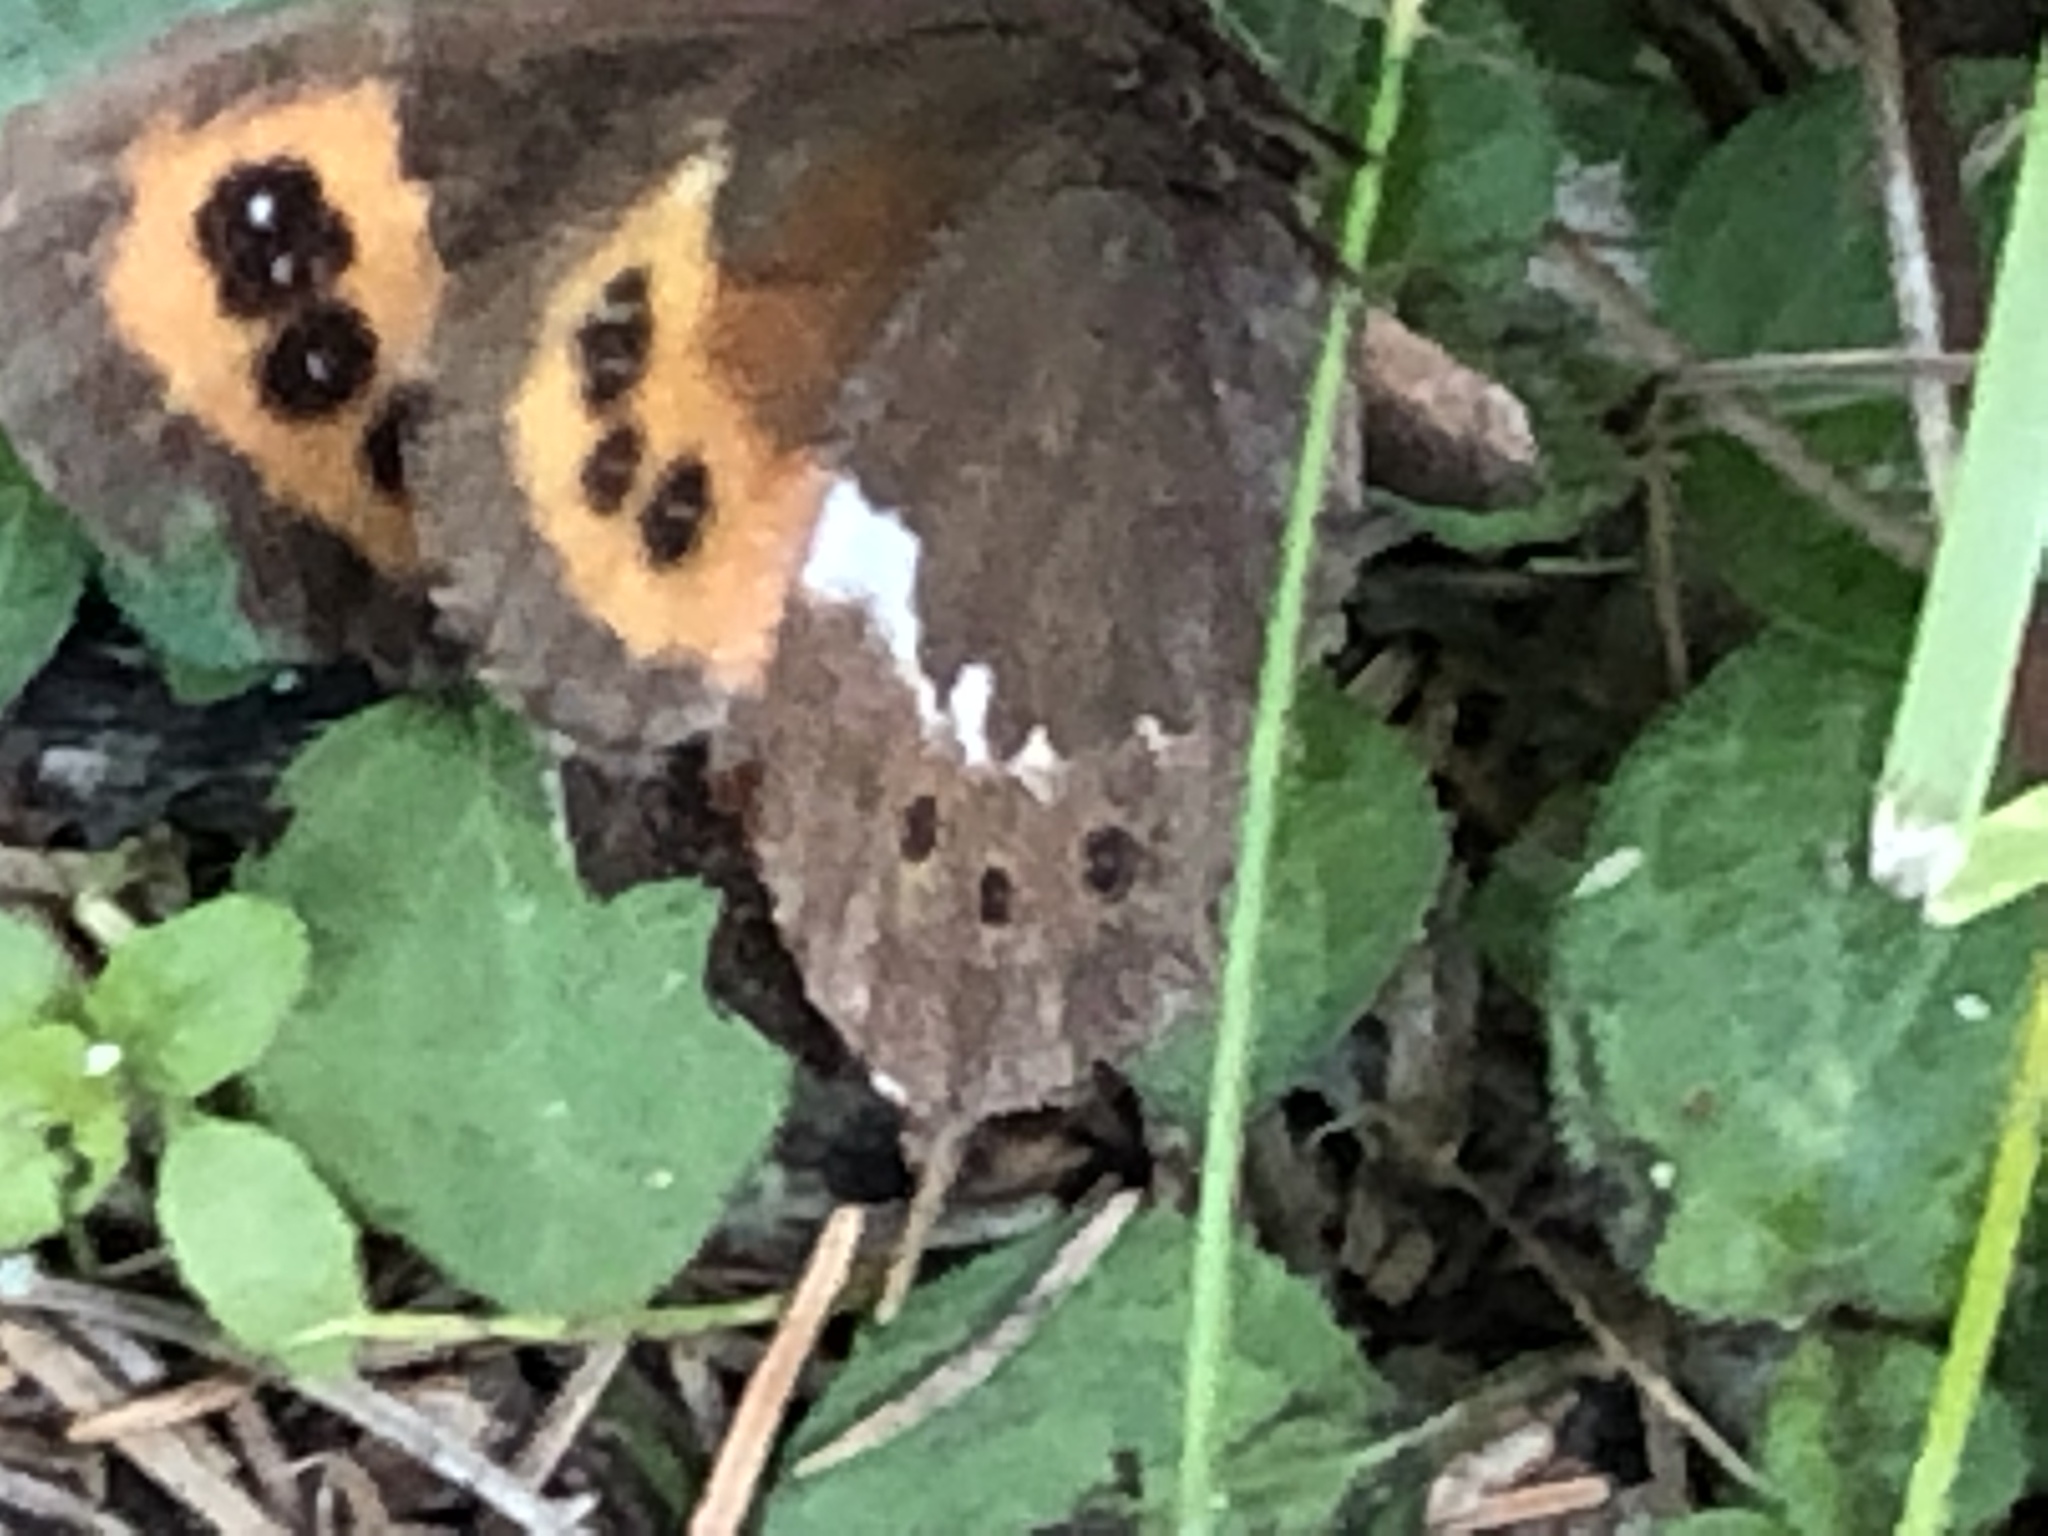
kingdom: Animalia
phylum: Arthropoda
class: Insecta
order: Lepidoptera
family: Nymphalidae
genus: Erebia
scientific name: Erebia ligea
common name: Arran brown
